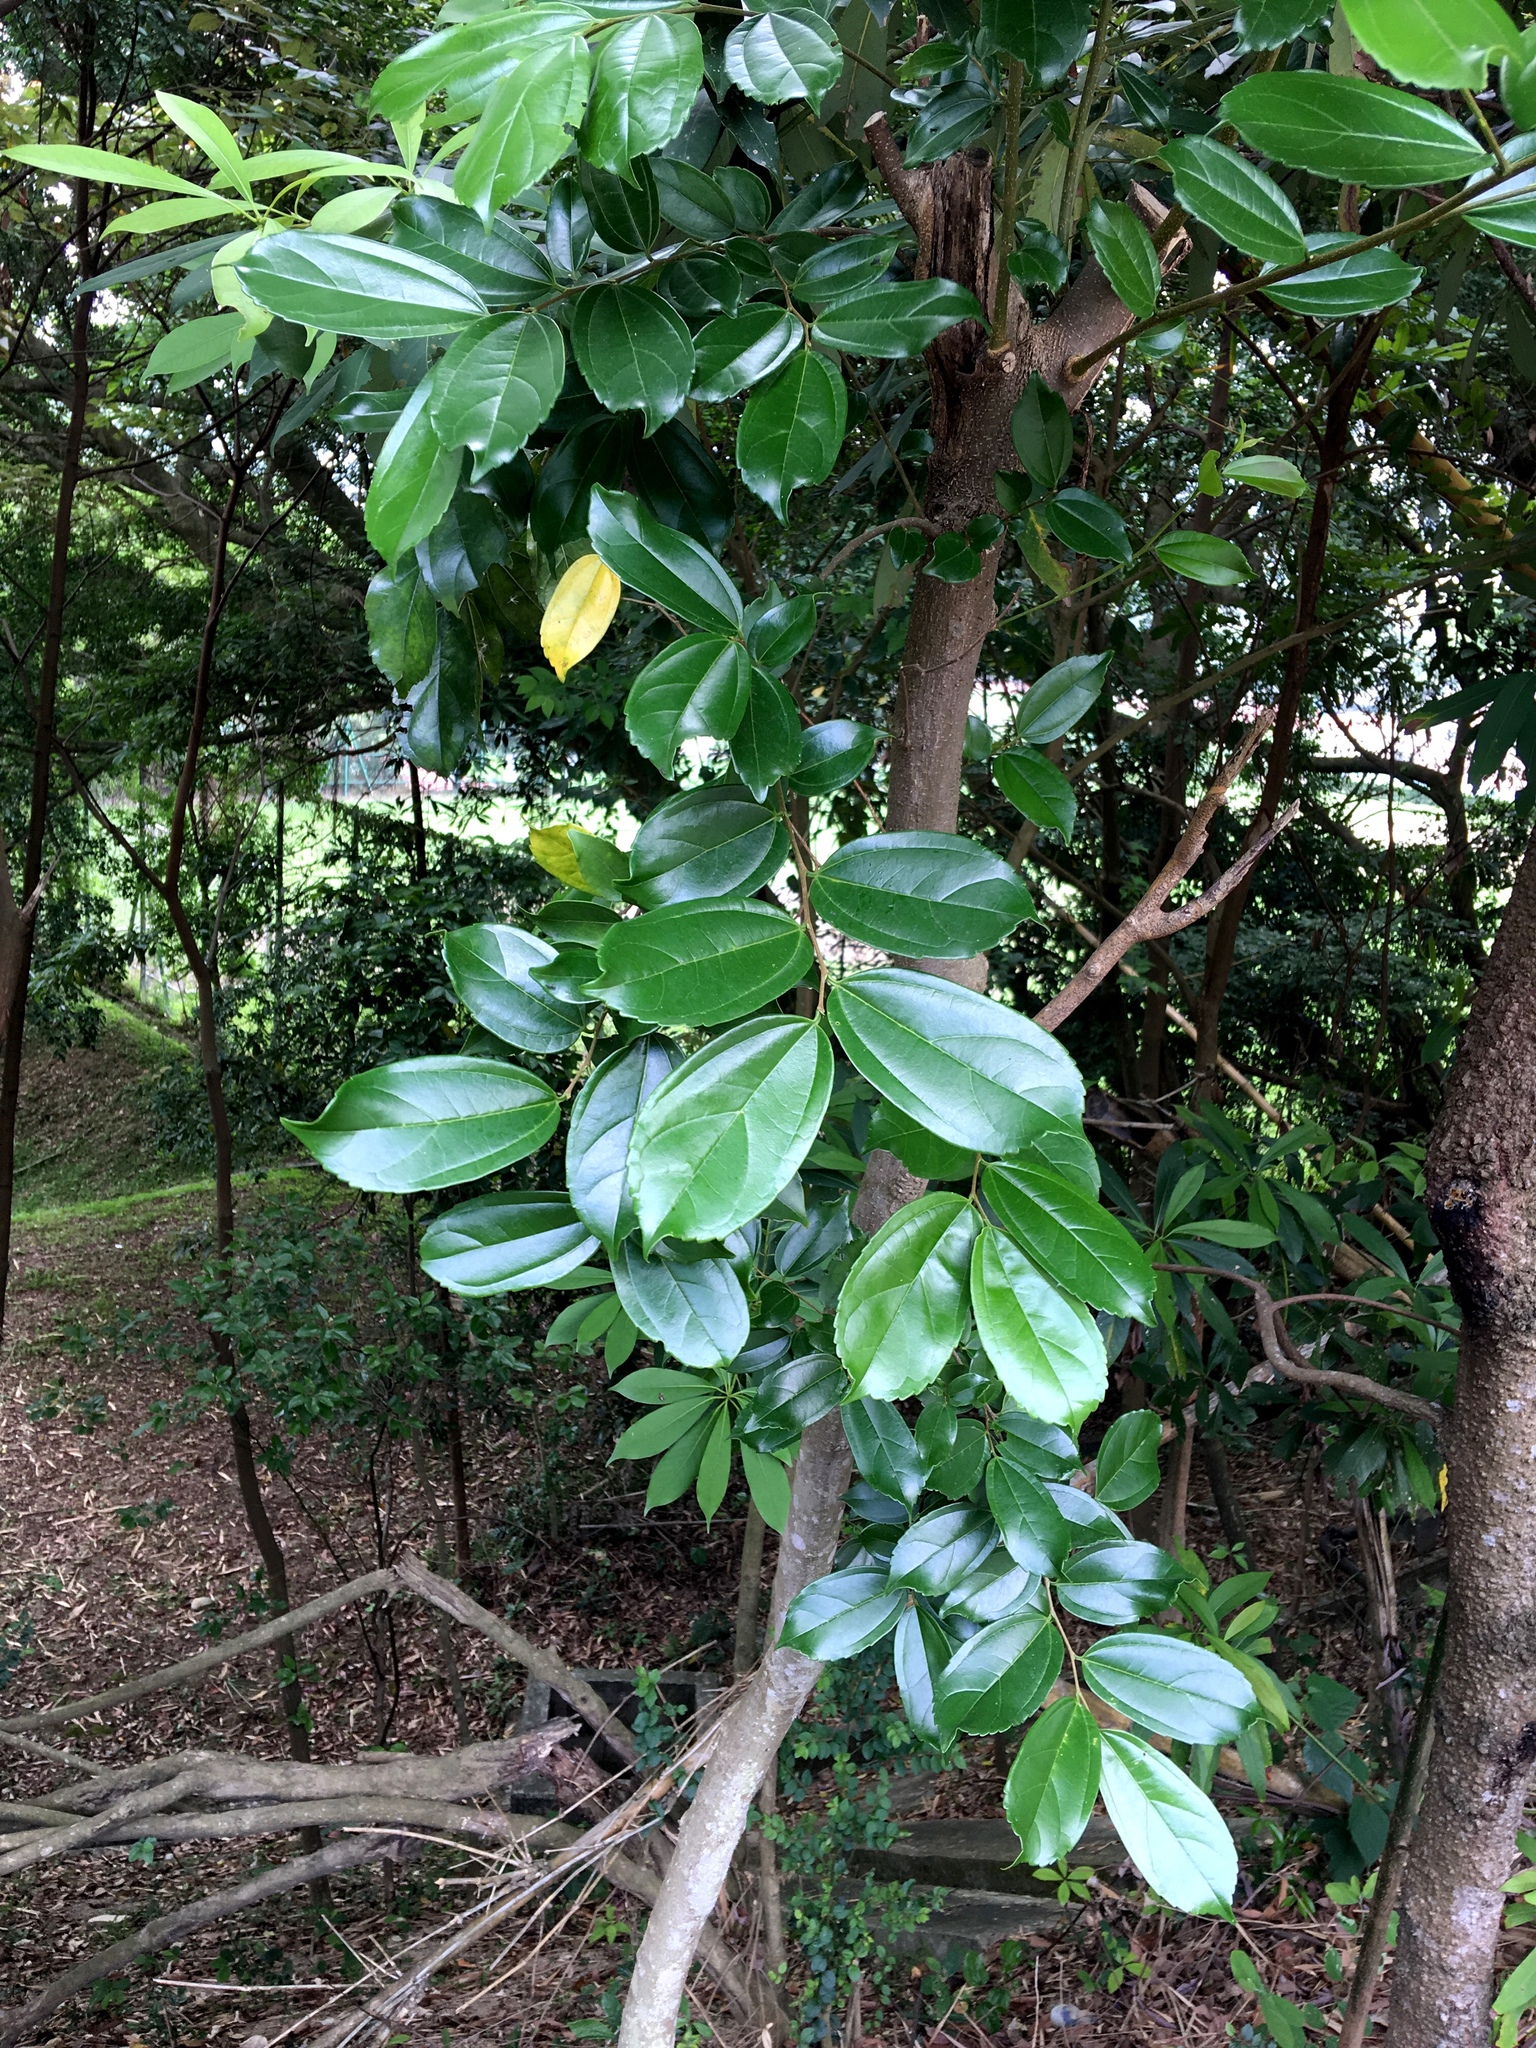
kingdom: Plantae
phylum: Tracheophyta
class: Magnoliopsida
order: Rosales
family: Cannabaceae
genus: Celtis
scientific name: Celtis timorensis
